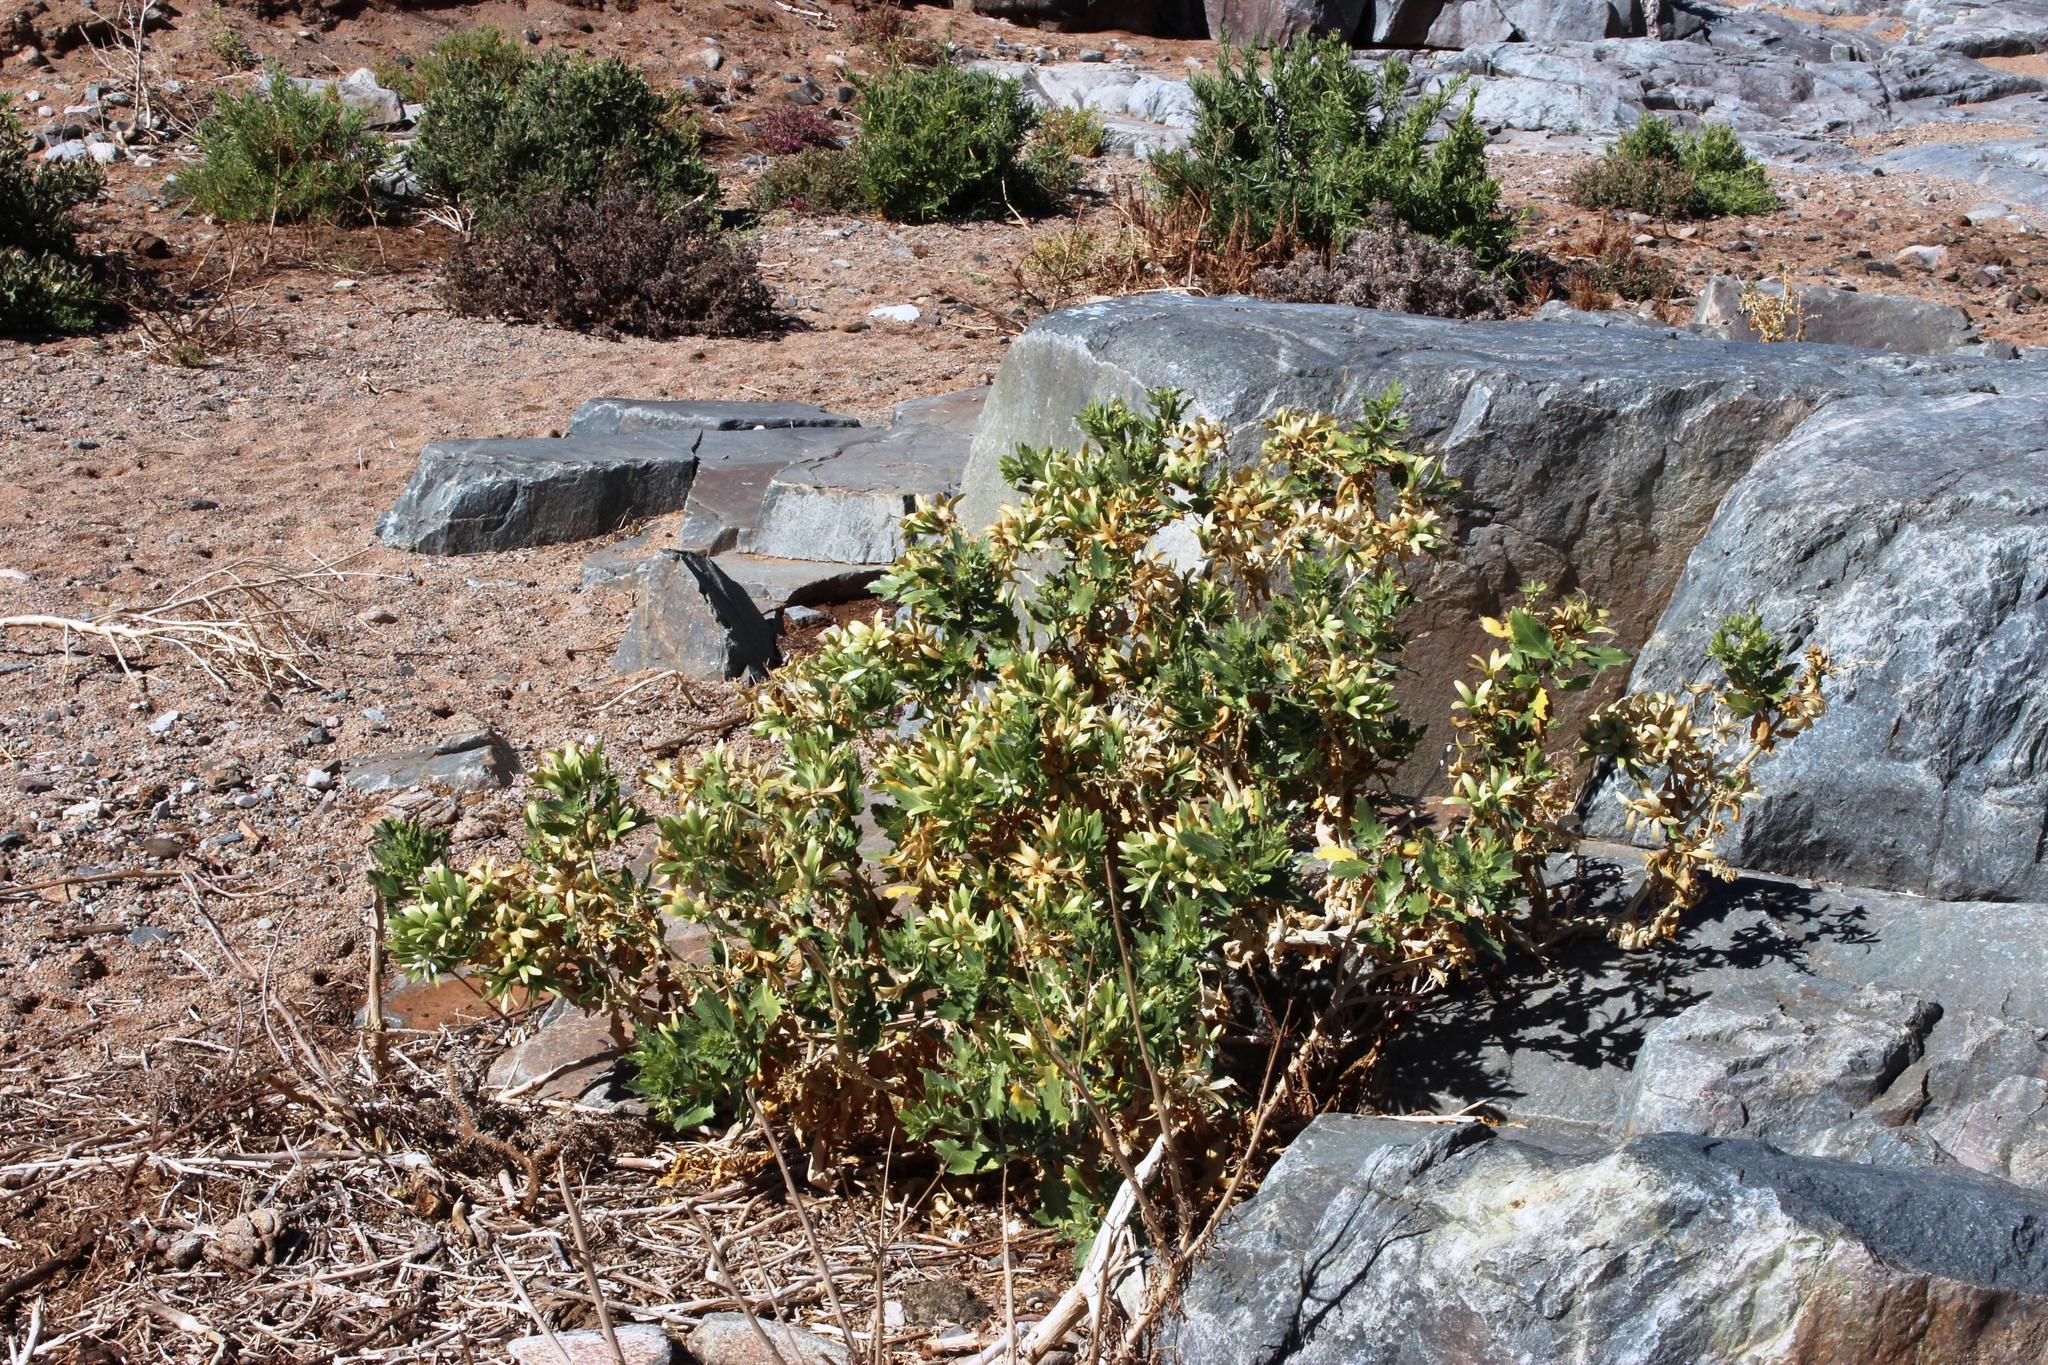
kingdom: Plantae
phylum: Tracheophyta
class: Magnoliopsida
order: Cornales
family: Loasaceae
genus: Kissenia
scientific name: Kissenia capensis
